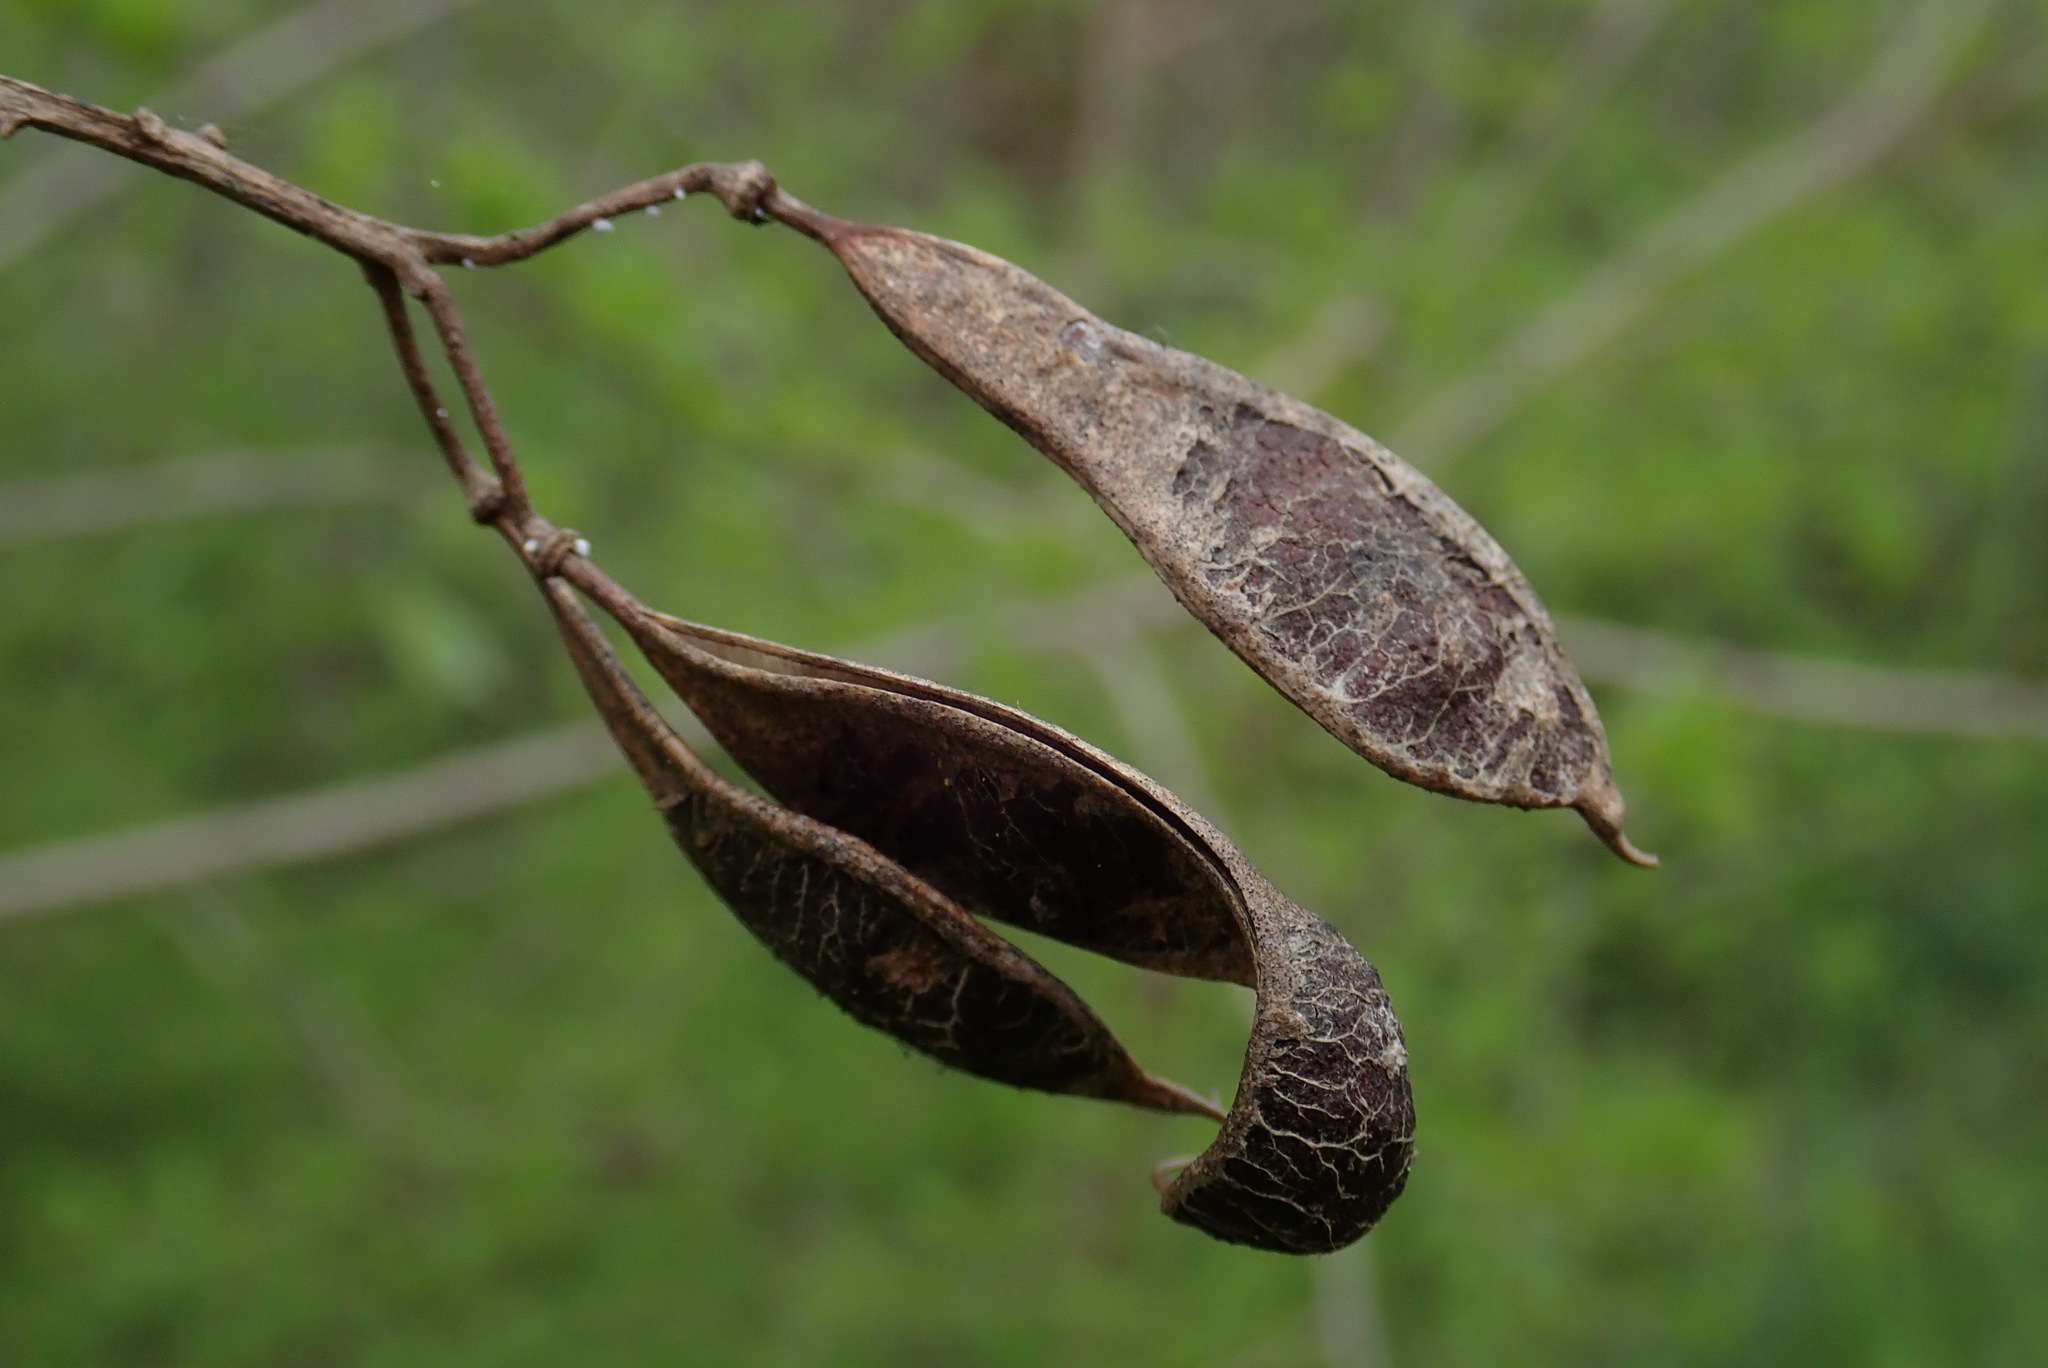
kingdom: Plantae
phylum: Tracheophyta
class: Magnoliopsida
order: Fabales
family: Fabaceae
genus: Robinia
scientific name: Robinia pseudoacacia
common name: Black locust
